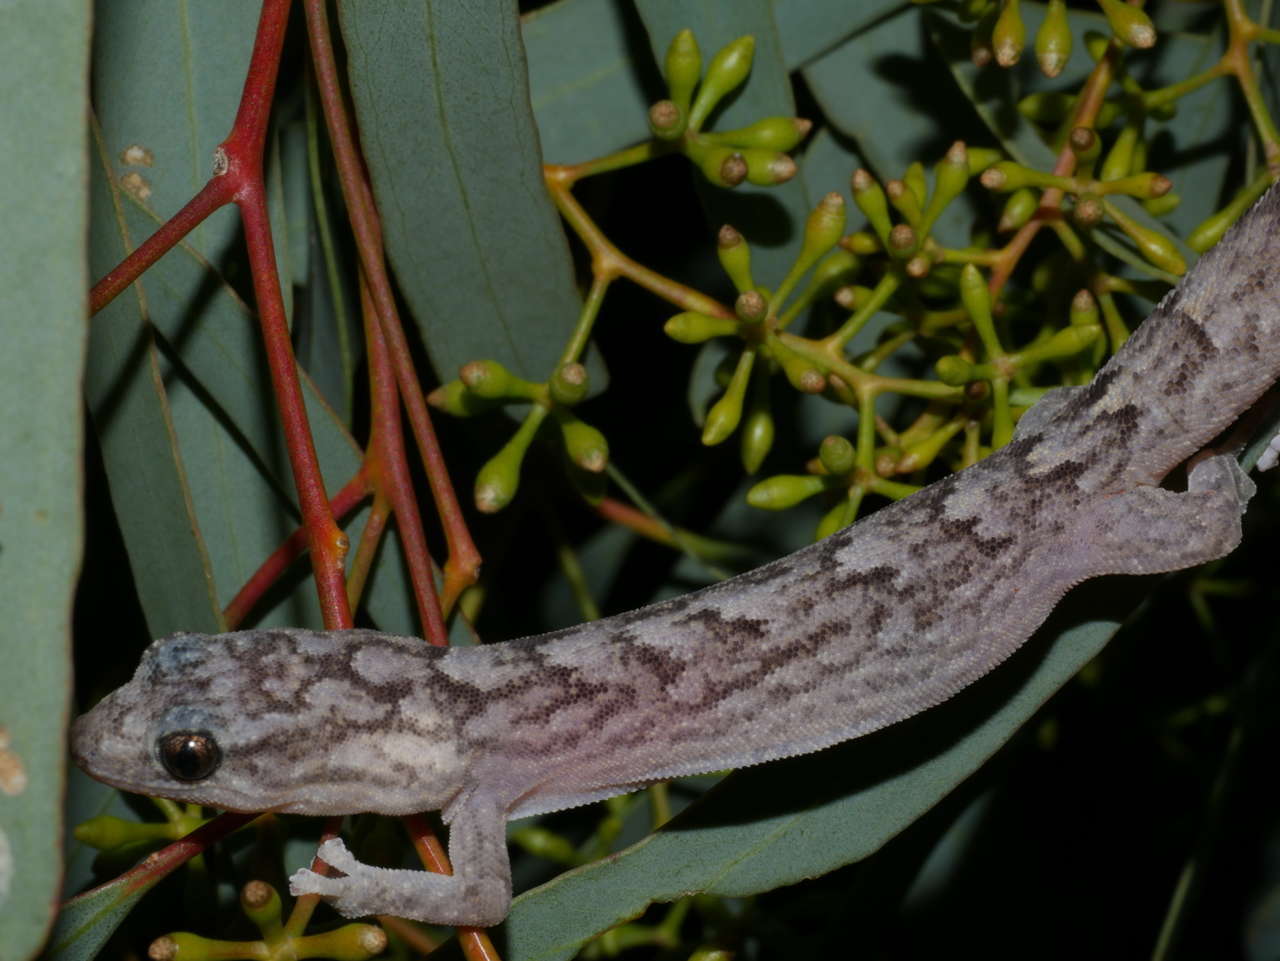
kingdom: Animalia
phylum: Chordata
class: Squamata
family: Gekkonidae
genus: Christinus
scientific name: Christinus marmoratus
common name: Marbled gecko
